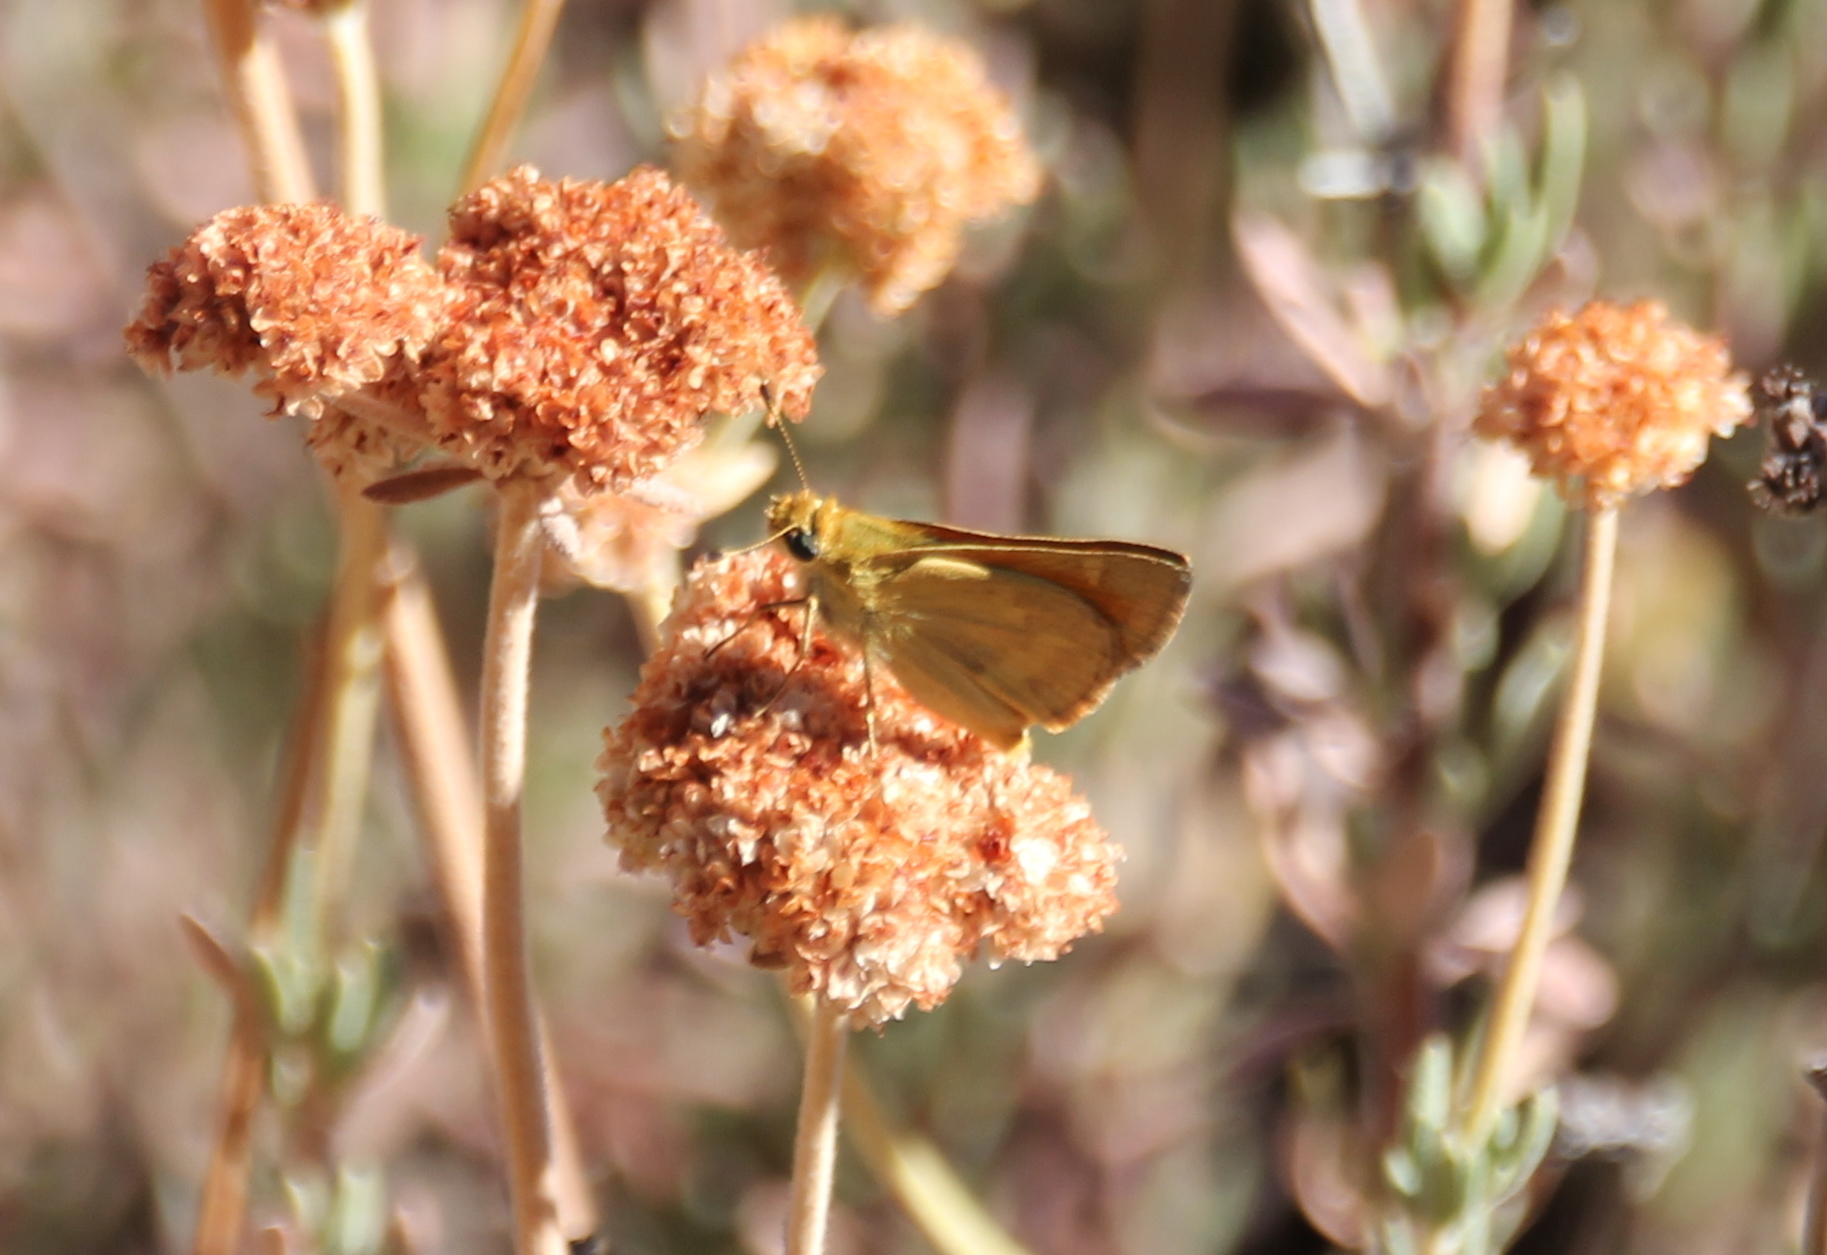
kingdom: Animalia
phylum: Arthropoda
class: Insecta
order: Lepidoptera
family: Hesperiidae
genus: Ochlodes
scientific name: Ochlodes sylvanoides
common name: Woodland skipper
